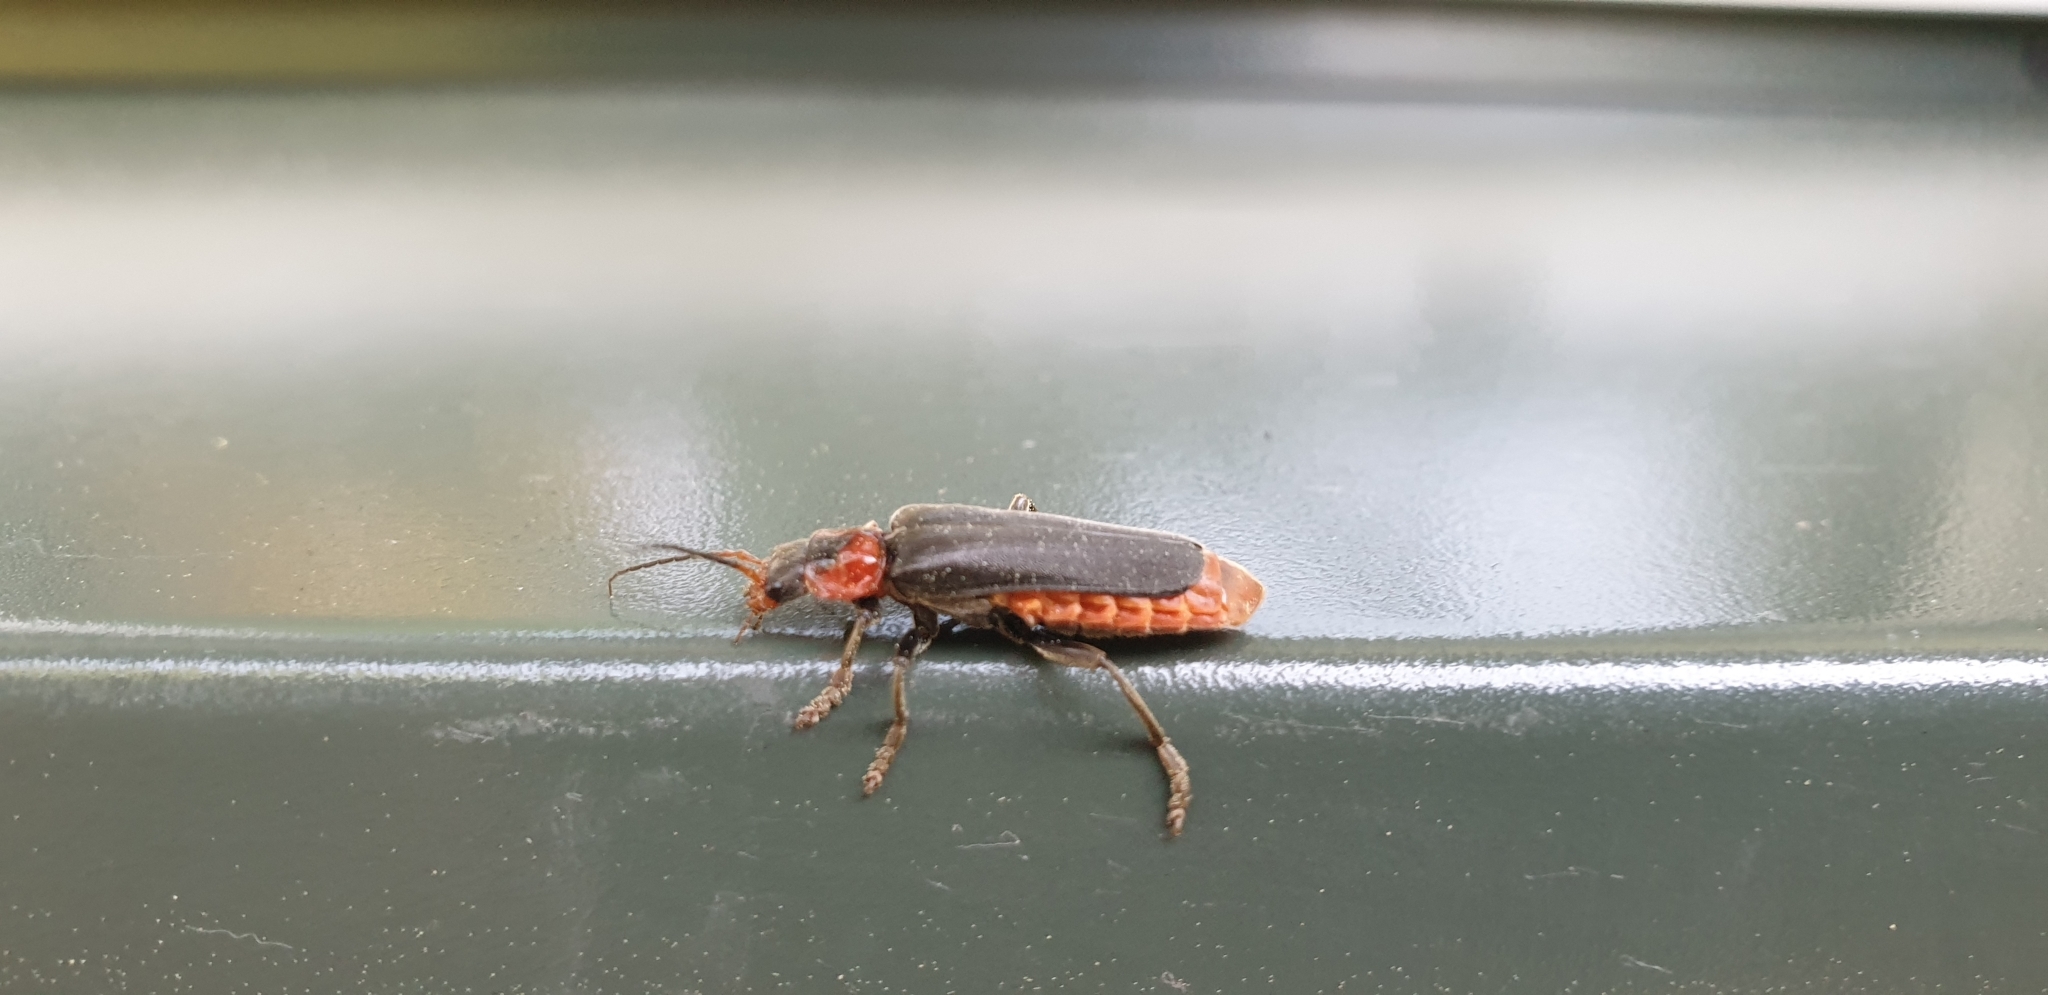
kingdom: Animalia
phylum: Arthropoda
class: Insecta
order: Coleoptera
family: Cantharidae
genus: Cantharis
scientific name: Cantharis fusca
